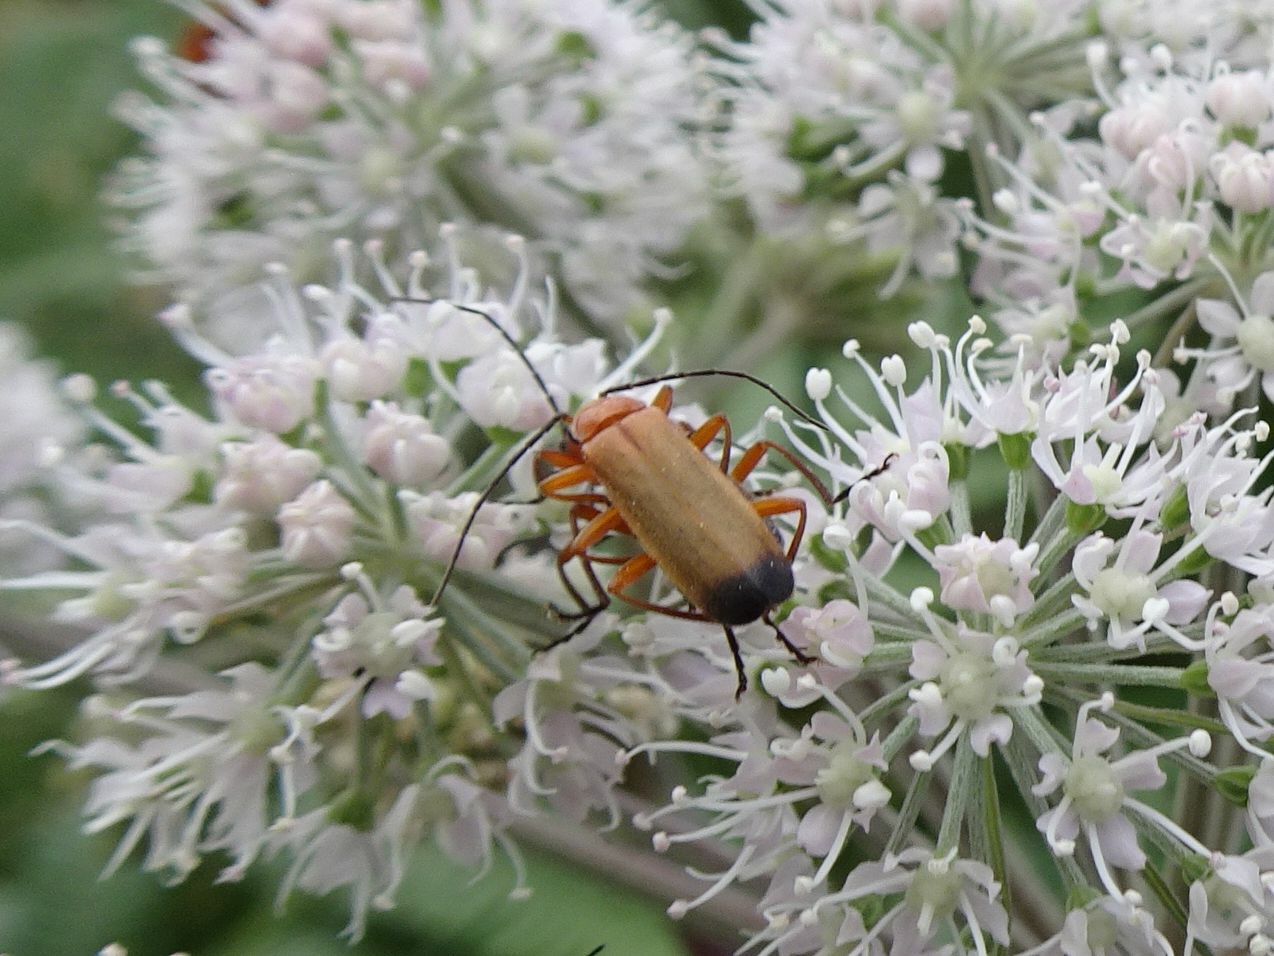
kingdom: Animalia
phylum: Arthropoda
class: Insecta
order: Coleoptera
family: Cantharidae
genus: Rhagonycha
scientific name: Rhagonycha fulva
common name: Common red soldier beetle
